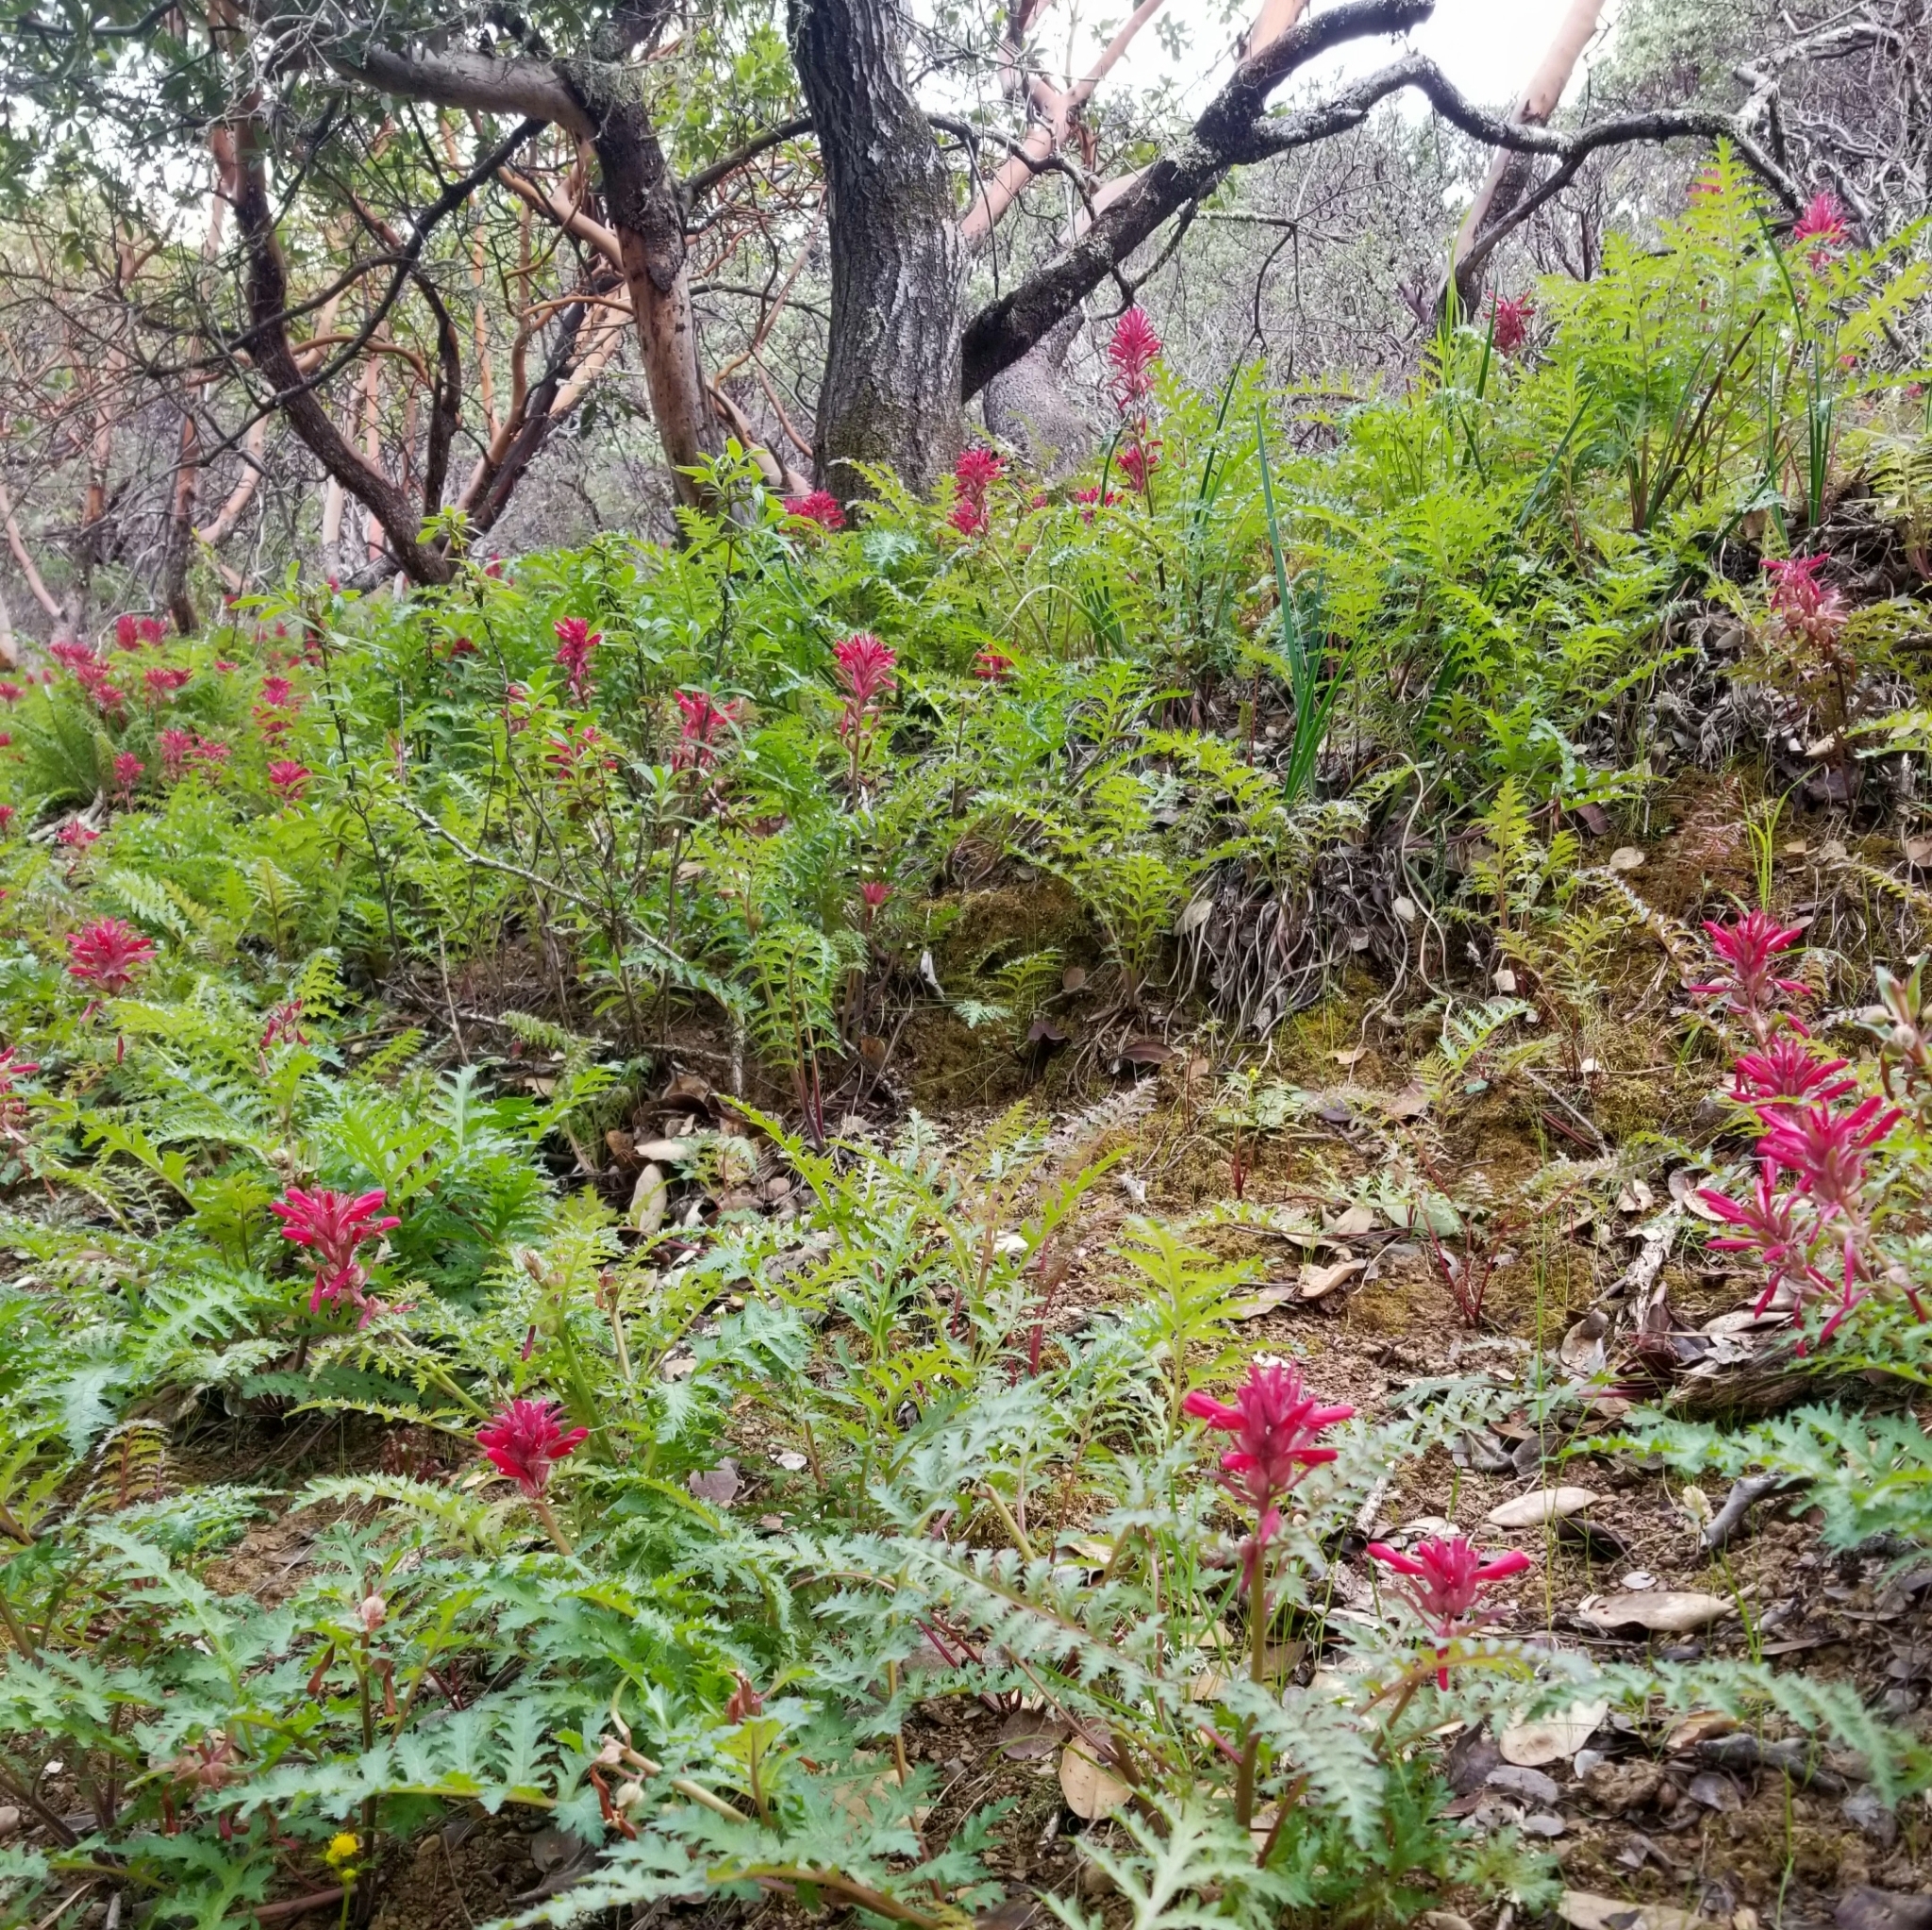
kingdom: Plantae
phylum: Tracheophyta
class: Magnoliopsida
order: Lamiales
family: Orobanchaceae
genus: Pedicularis
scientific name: Pedicularis densiflora
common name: Indian warrior
